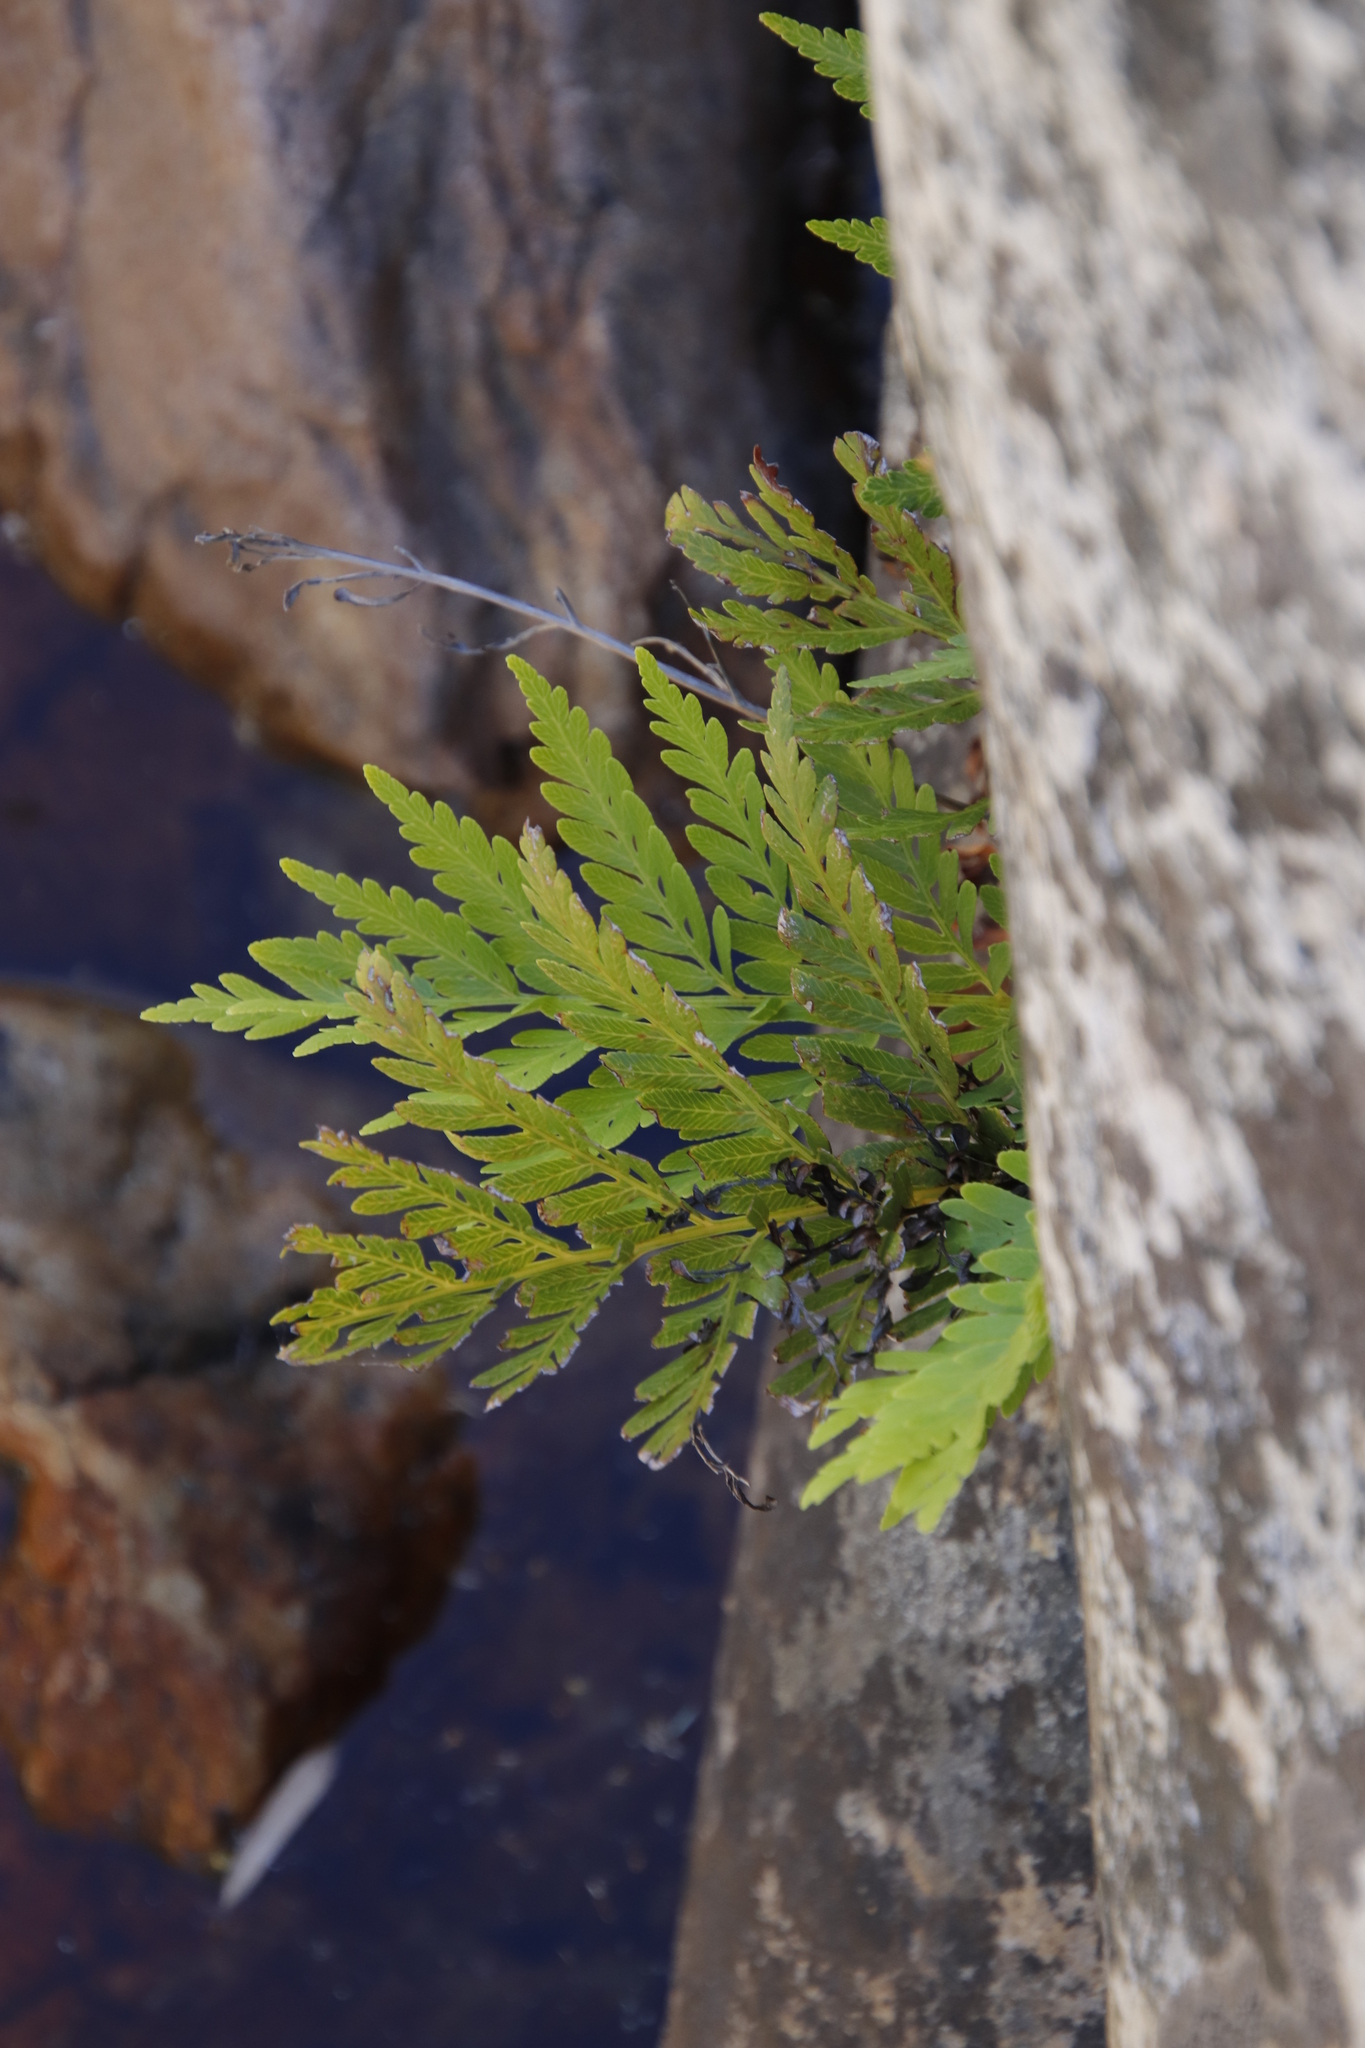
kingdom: Plantae
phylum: Tracheophyta
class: Polypodiopsida
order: Osmundales
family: Osmundaceae
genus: Todea
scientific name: Todea barbara
